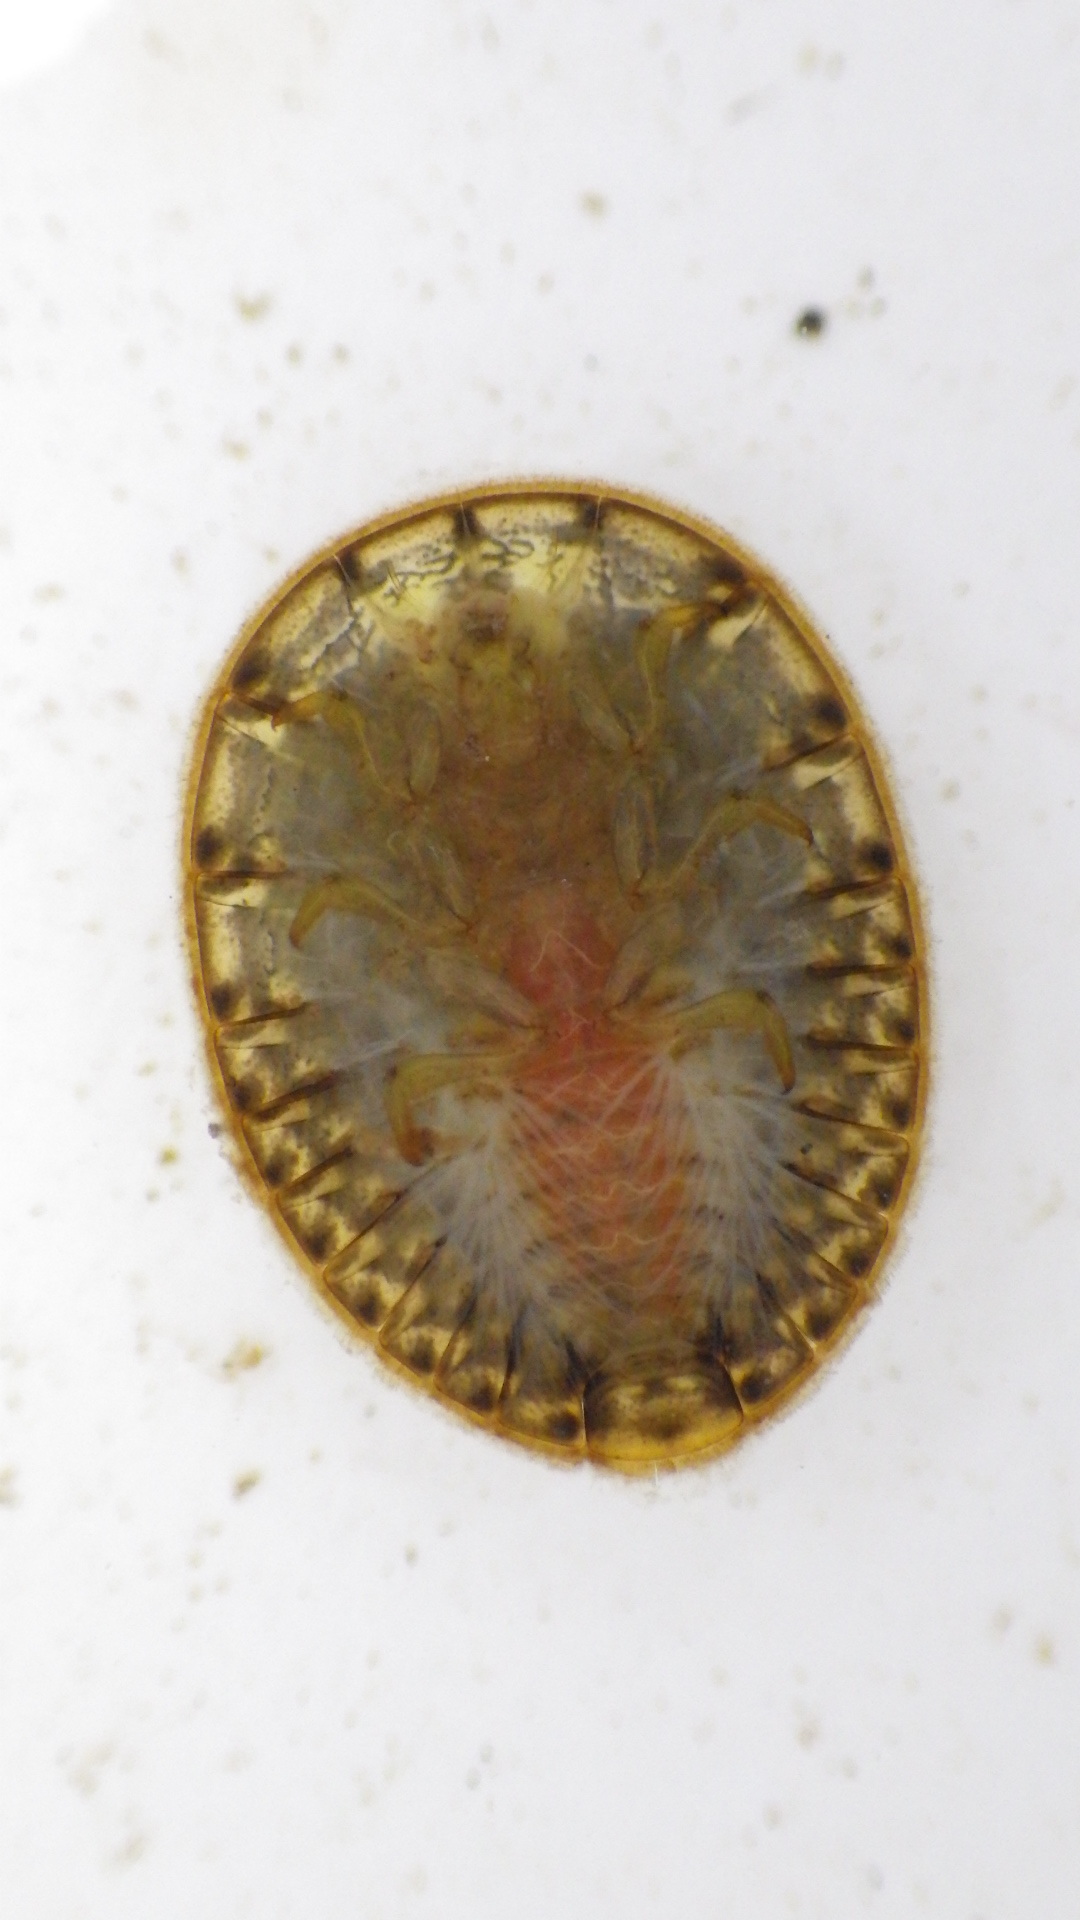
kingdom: Animalia
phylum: Arthropoda
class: Insecta
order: Coleoptera
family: Psephenidae
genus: Psephenus
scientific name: Psephenus herricki
